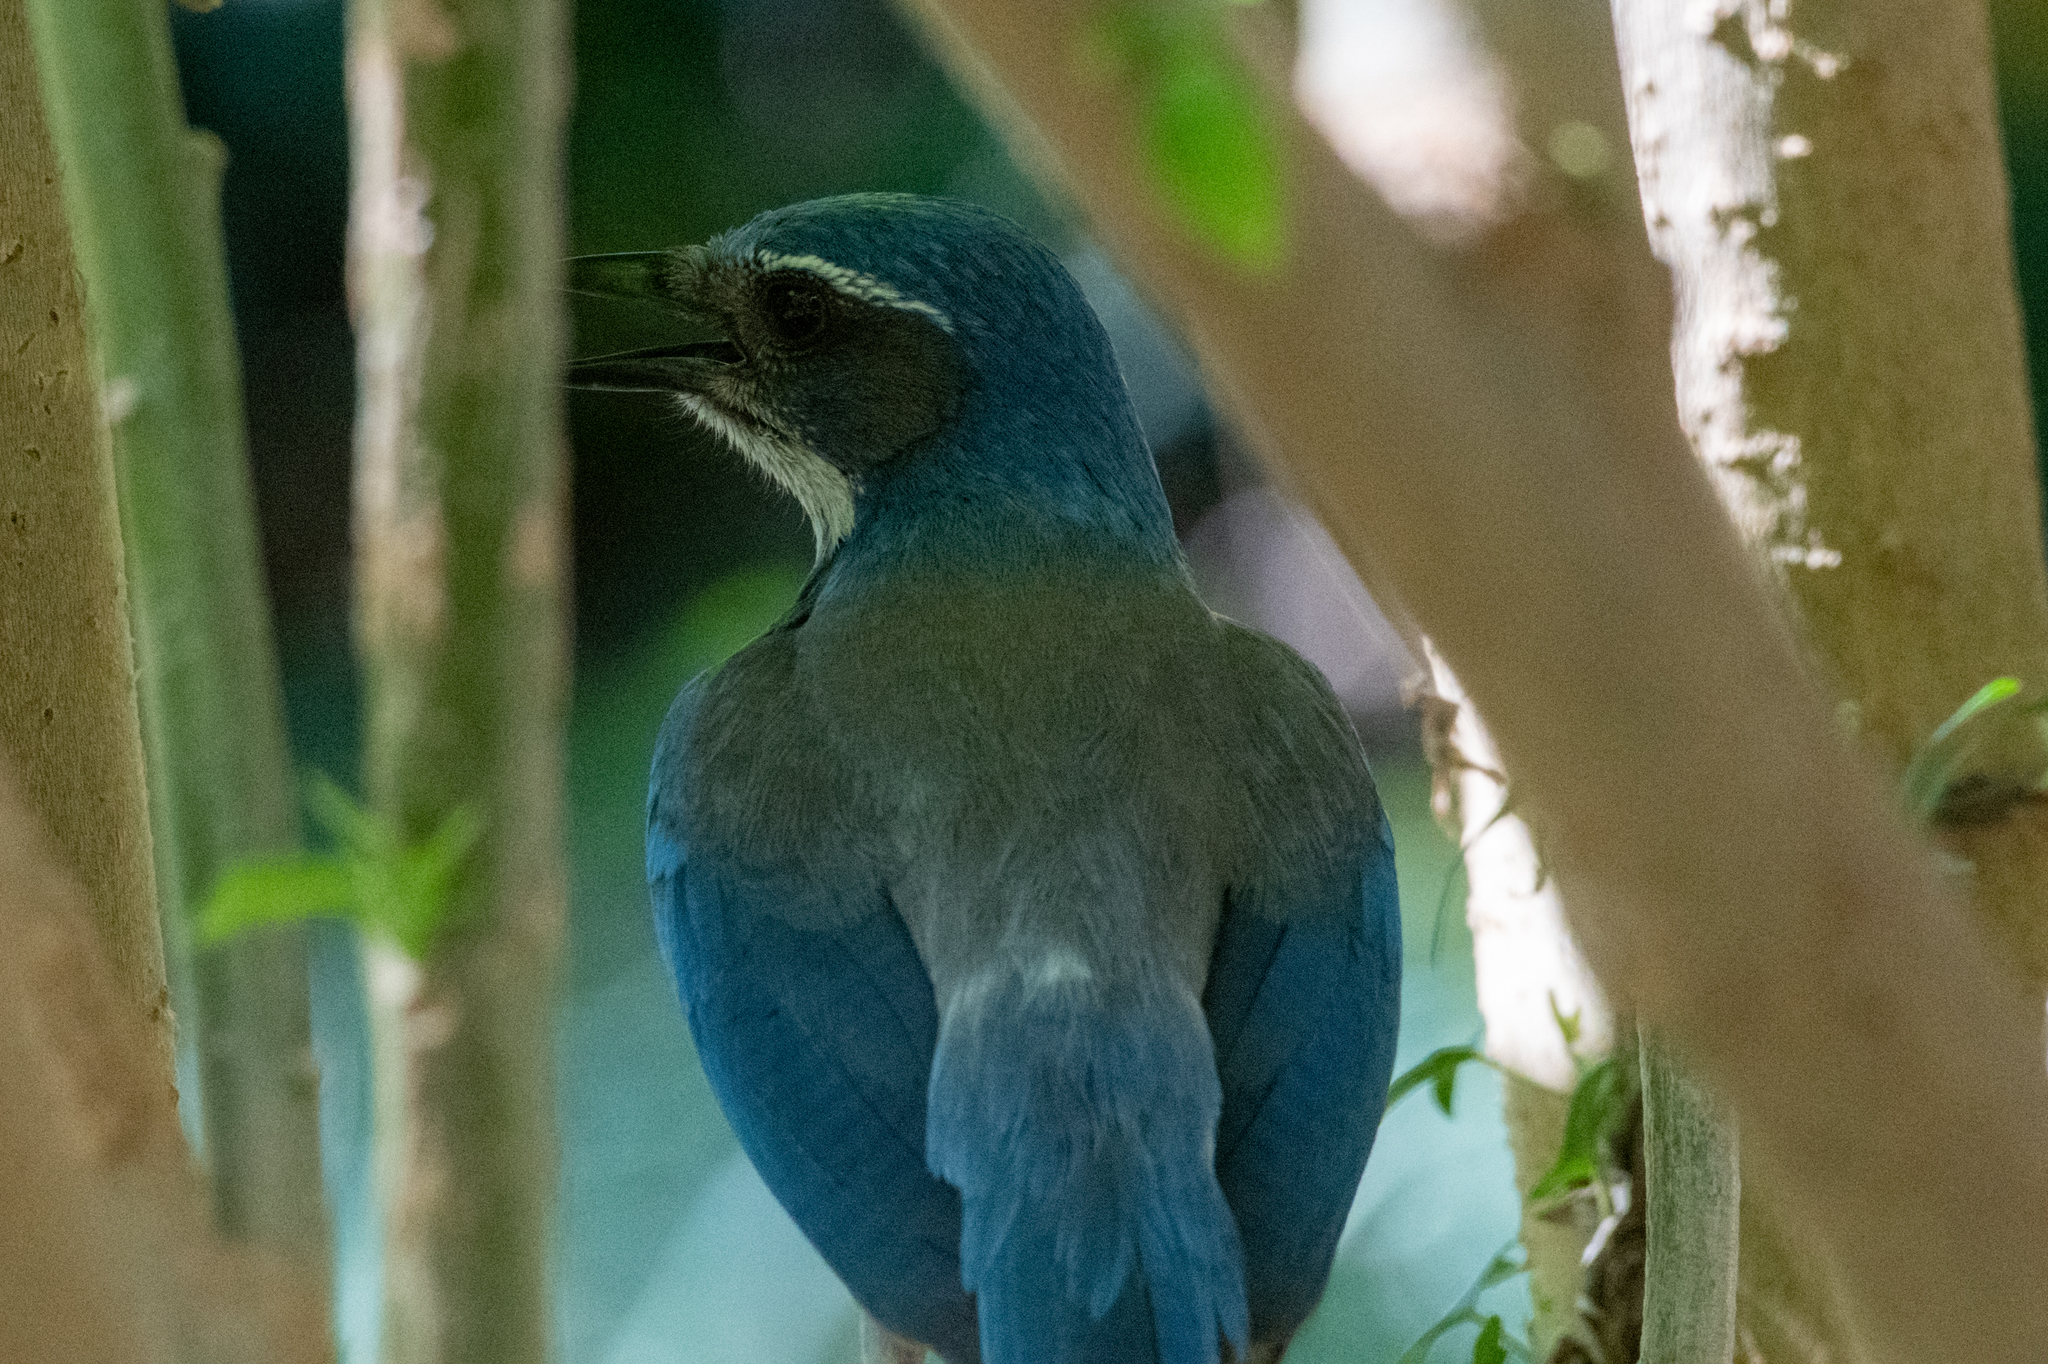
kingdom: Animalia
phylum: Chordata
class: Aves
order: Passeriformes
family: Corvidae
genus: Aphelocoma
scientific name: Aphelocoma californica
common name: California scrub-jay
